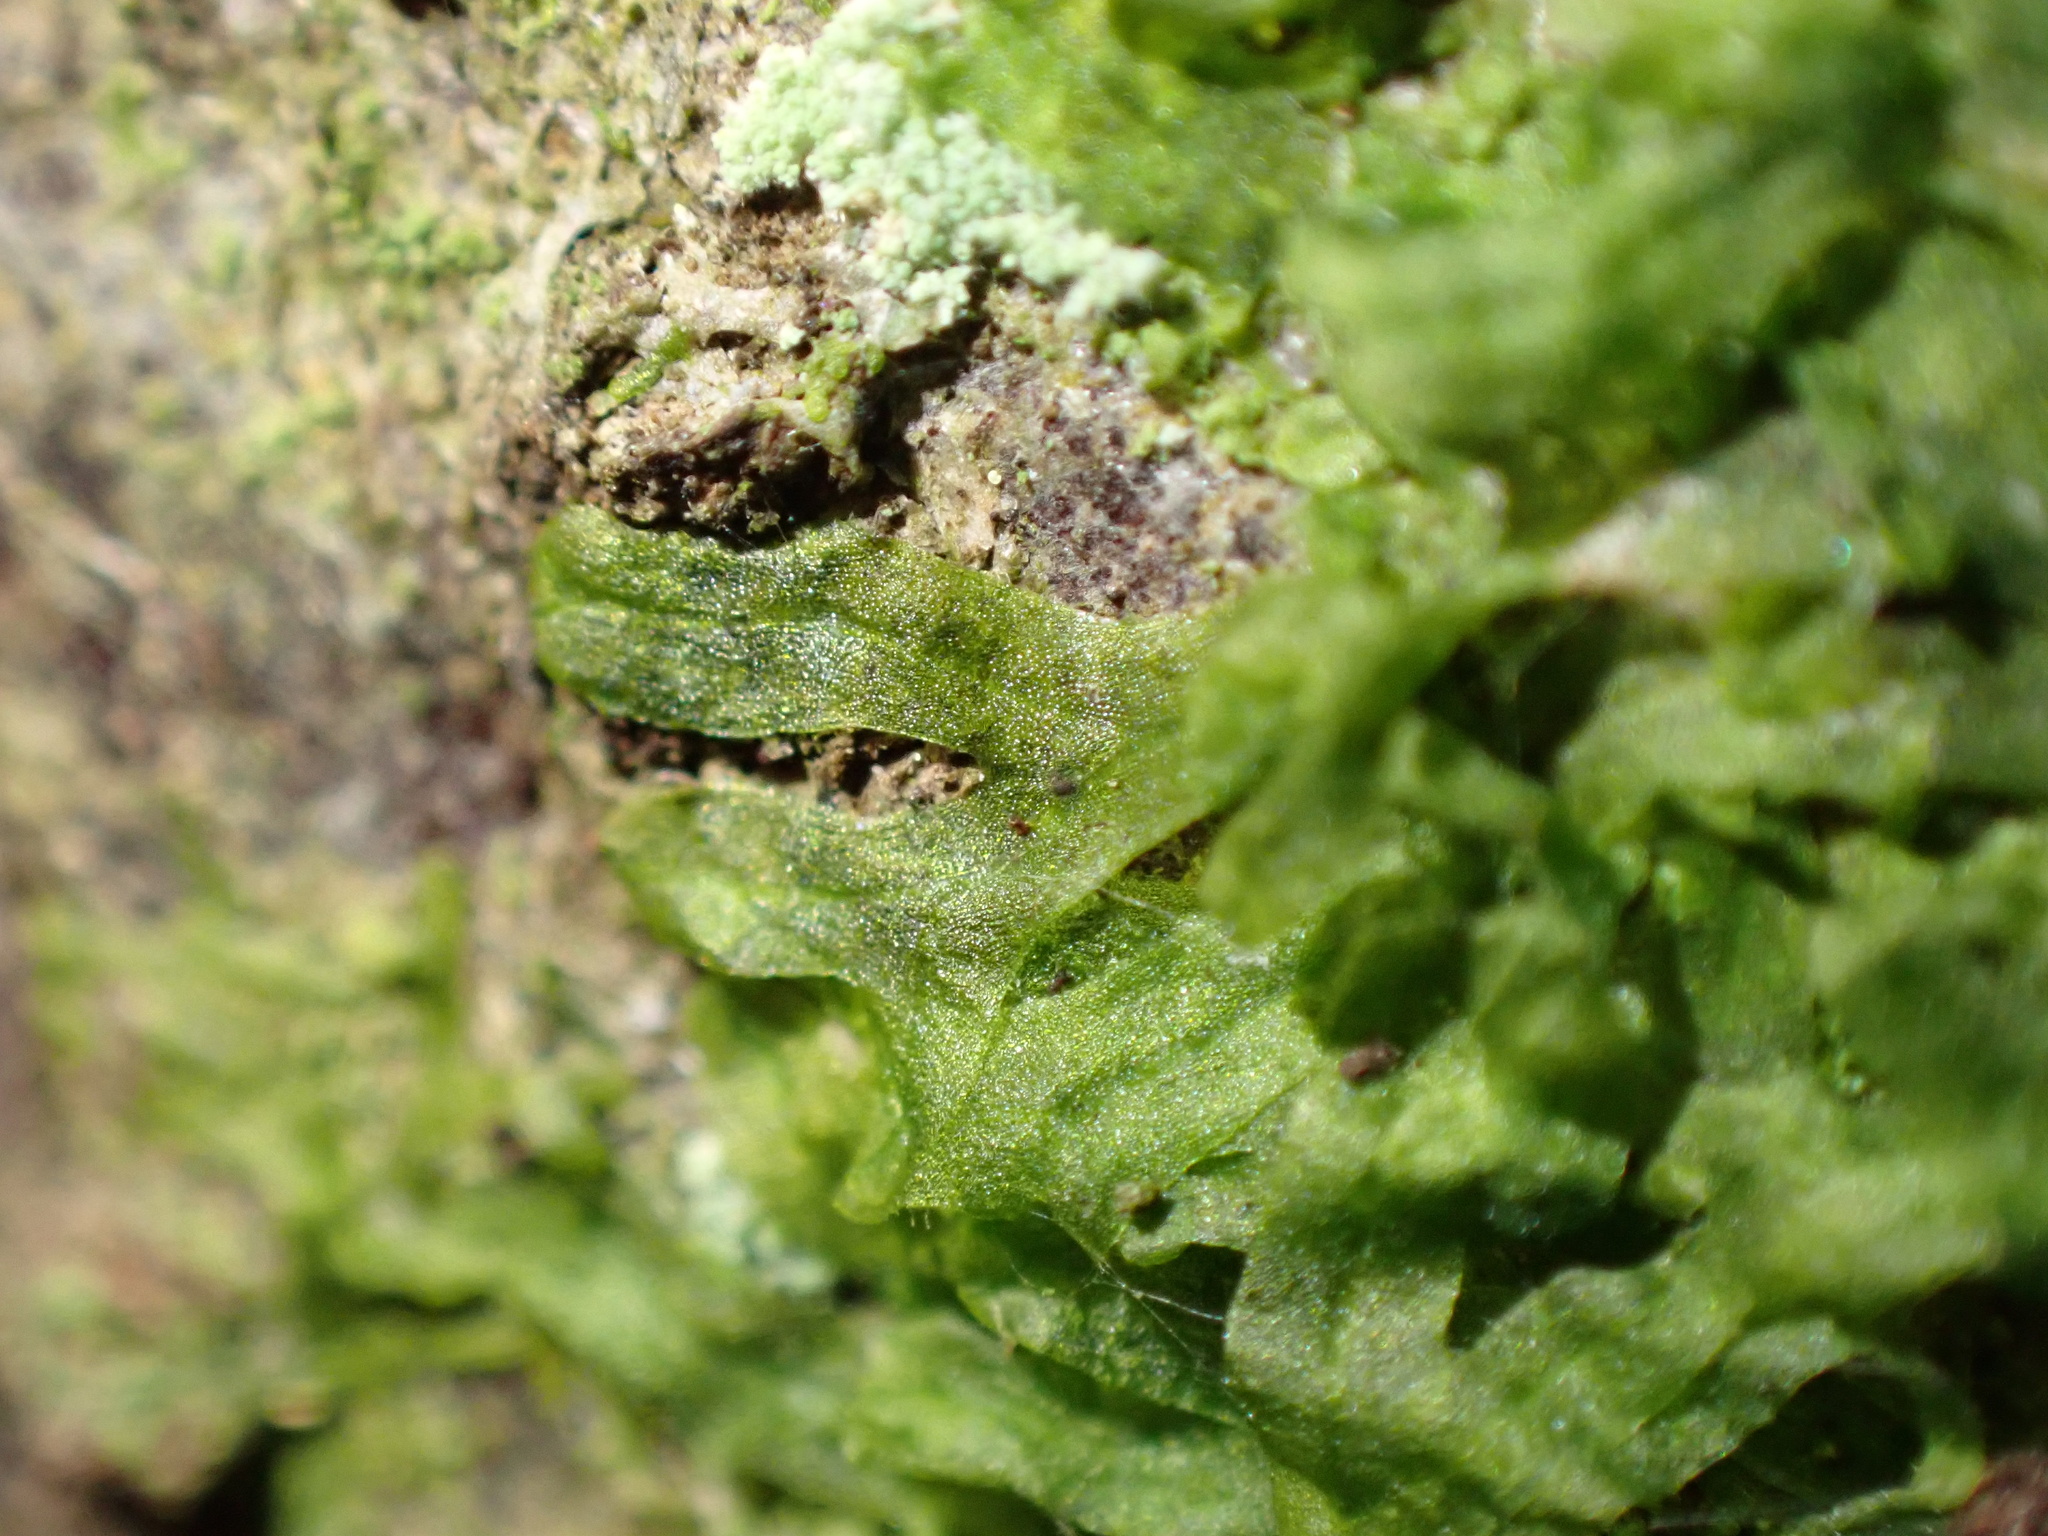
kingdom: Plantae
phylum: Marchantiophyta
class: Jungermanniopsida
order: Metzgeriales
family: Metzgeriaceae
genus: Metzgeria
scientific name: Metzgeria furcata
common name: Forked veilwort
